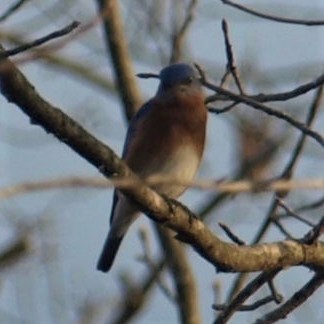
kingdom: Animalia
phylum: Chordata
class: Aves
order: Passeriformes
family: Turdidae
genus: Sialia
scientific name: Sialia sialis
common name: Eastern bluebird
